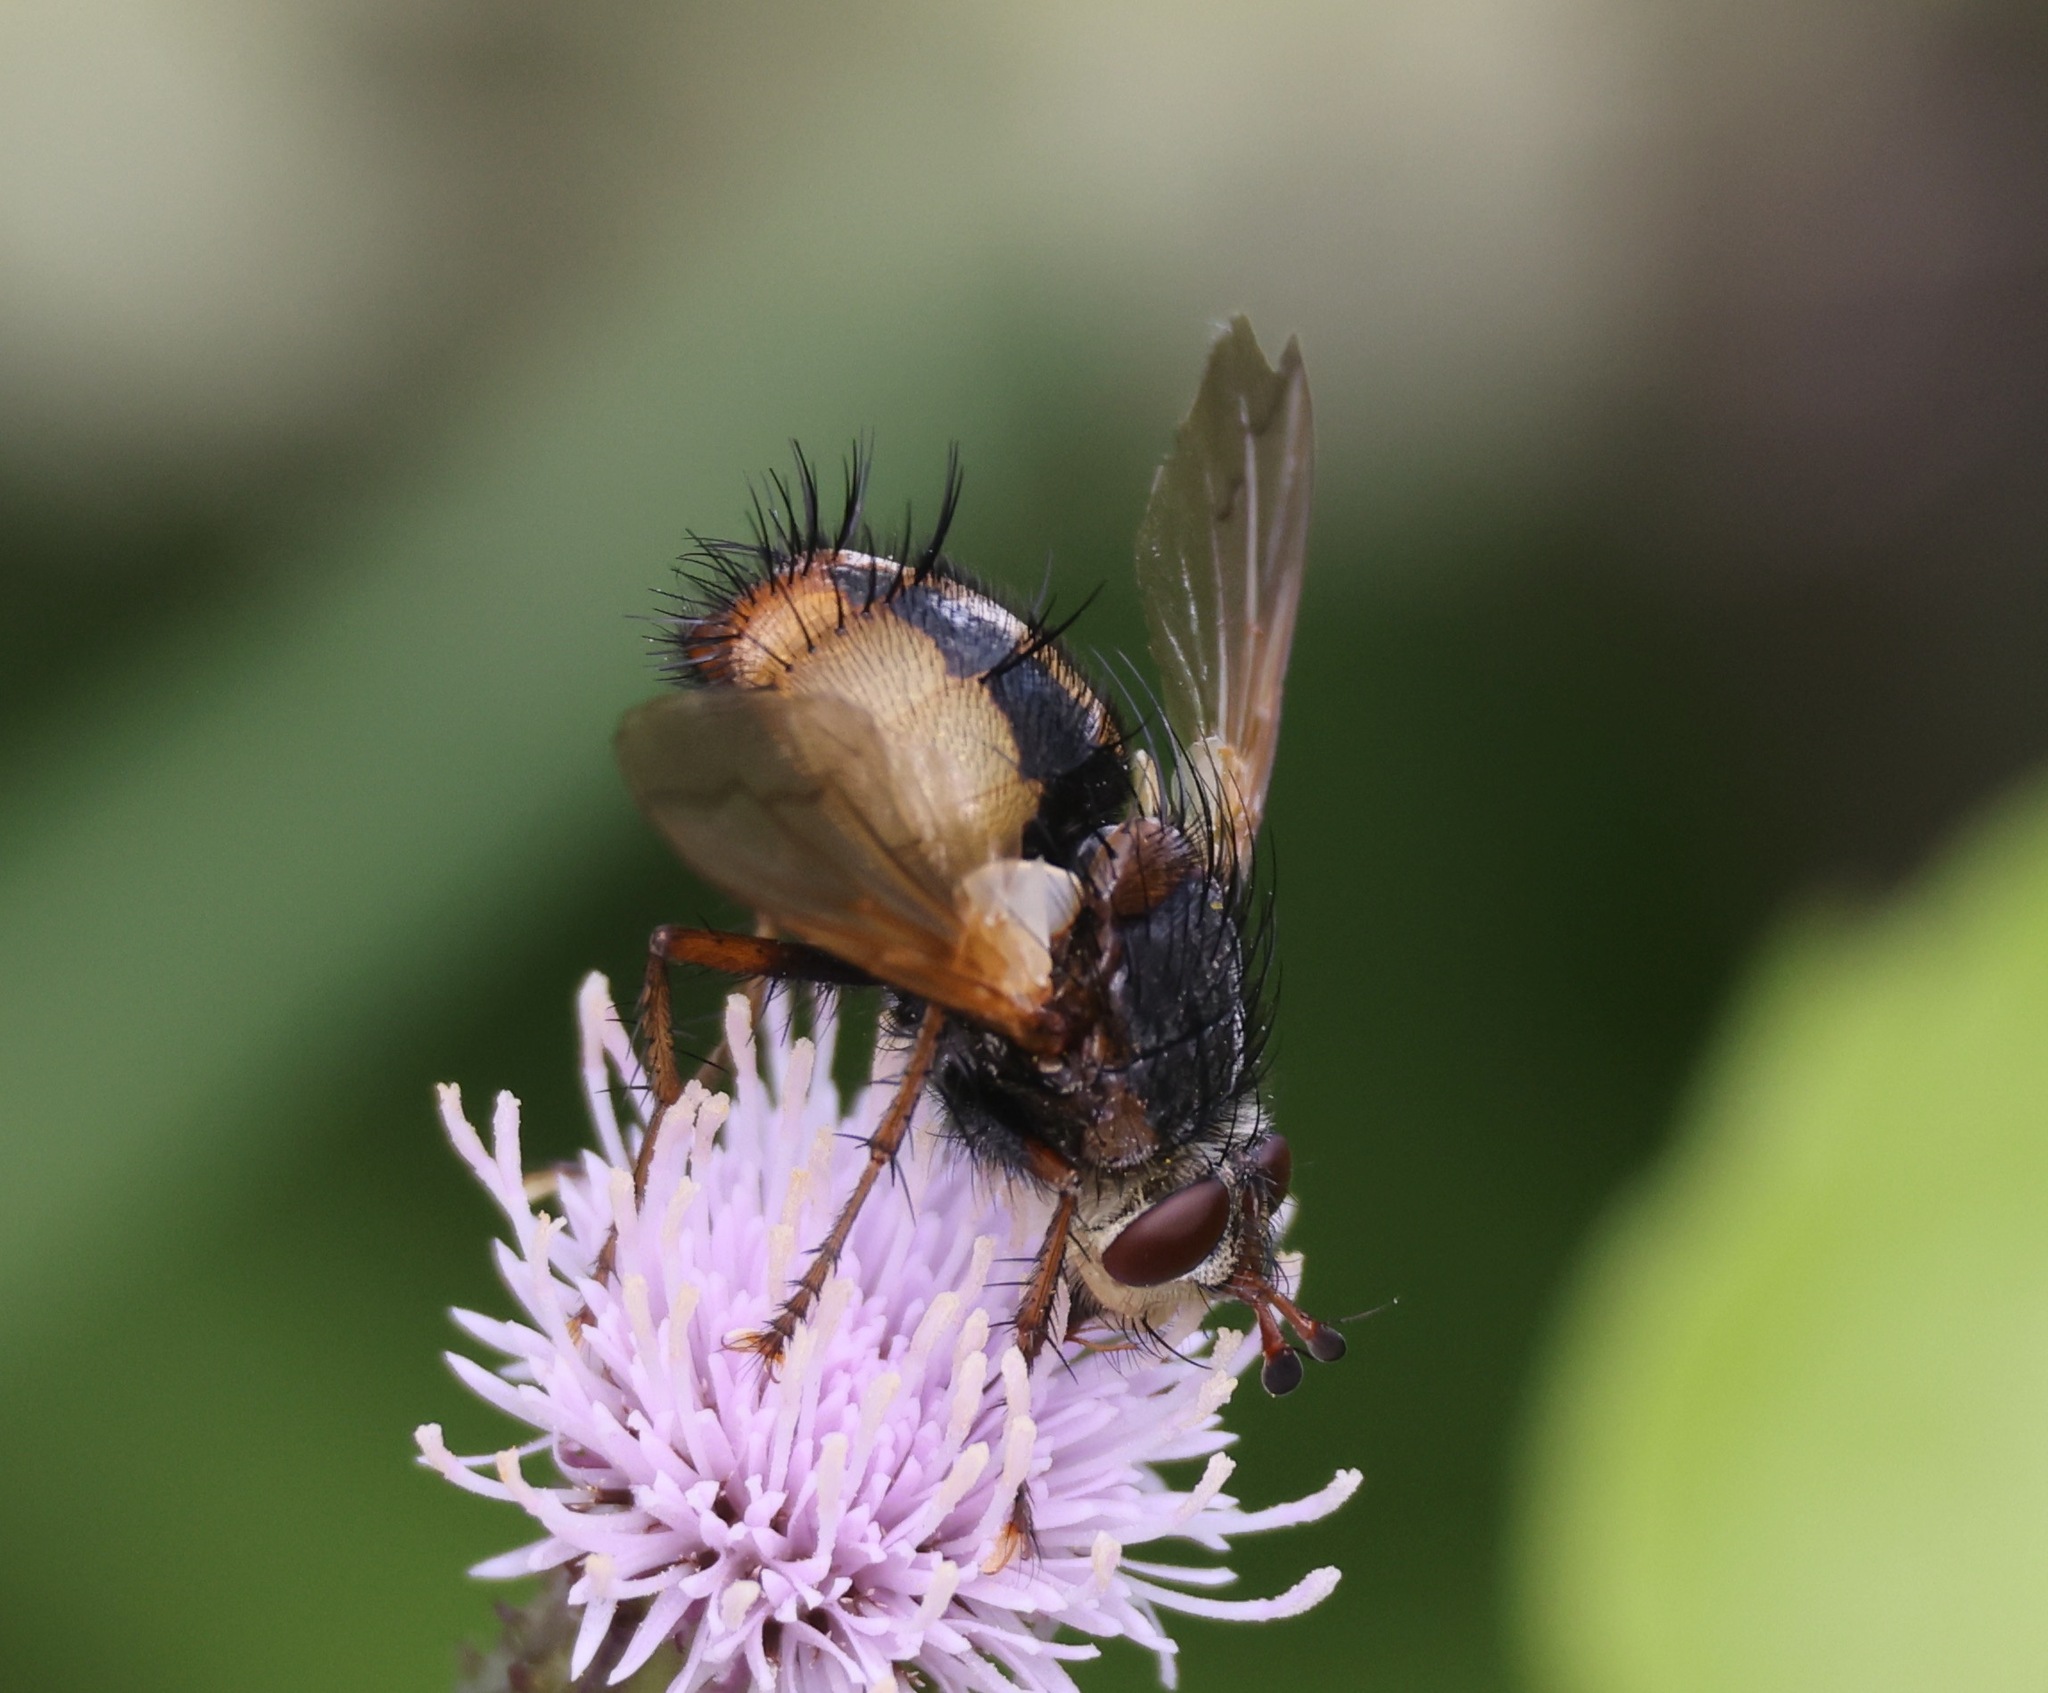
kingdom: Animalia
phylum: Arthropoda
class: Insecta
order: Diptera
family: Tachinidae
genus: Tachina
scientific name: Tachina fera
